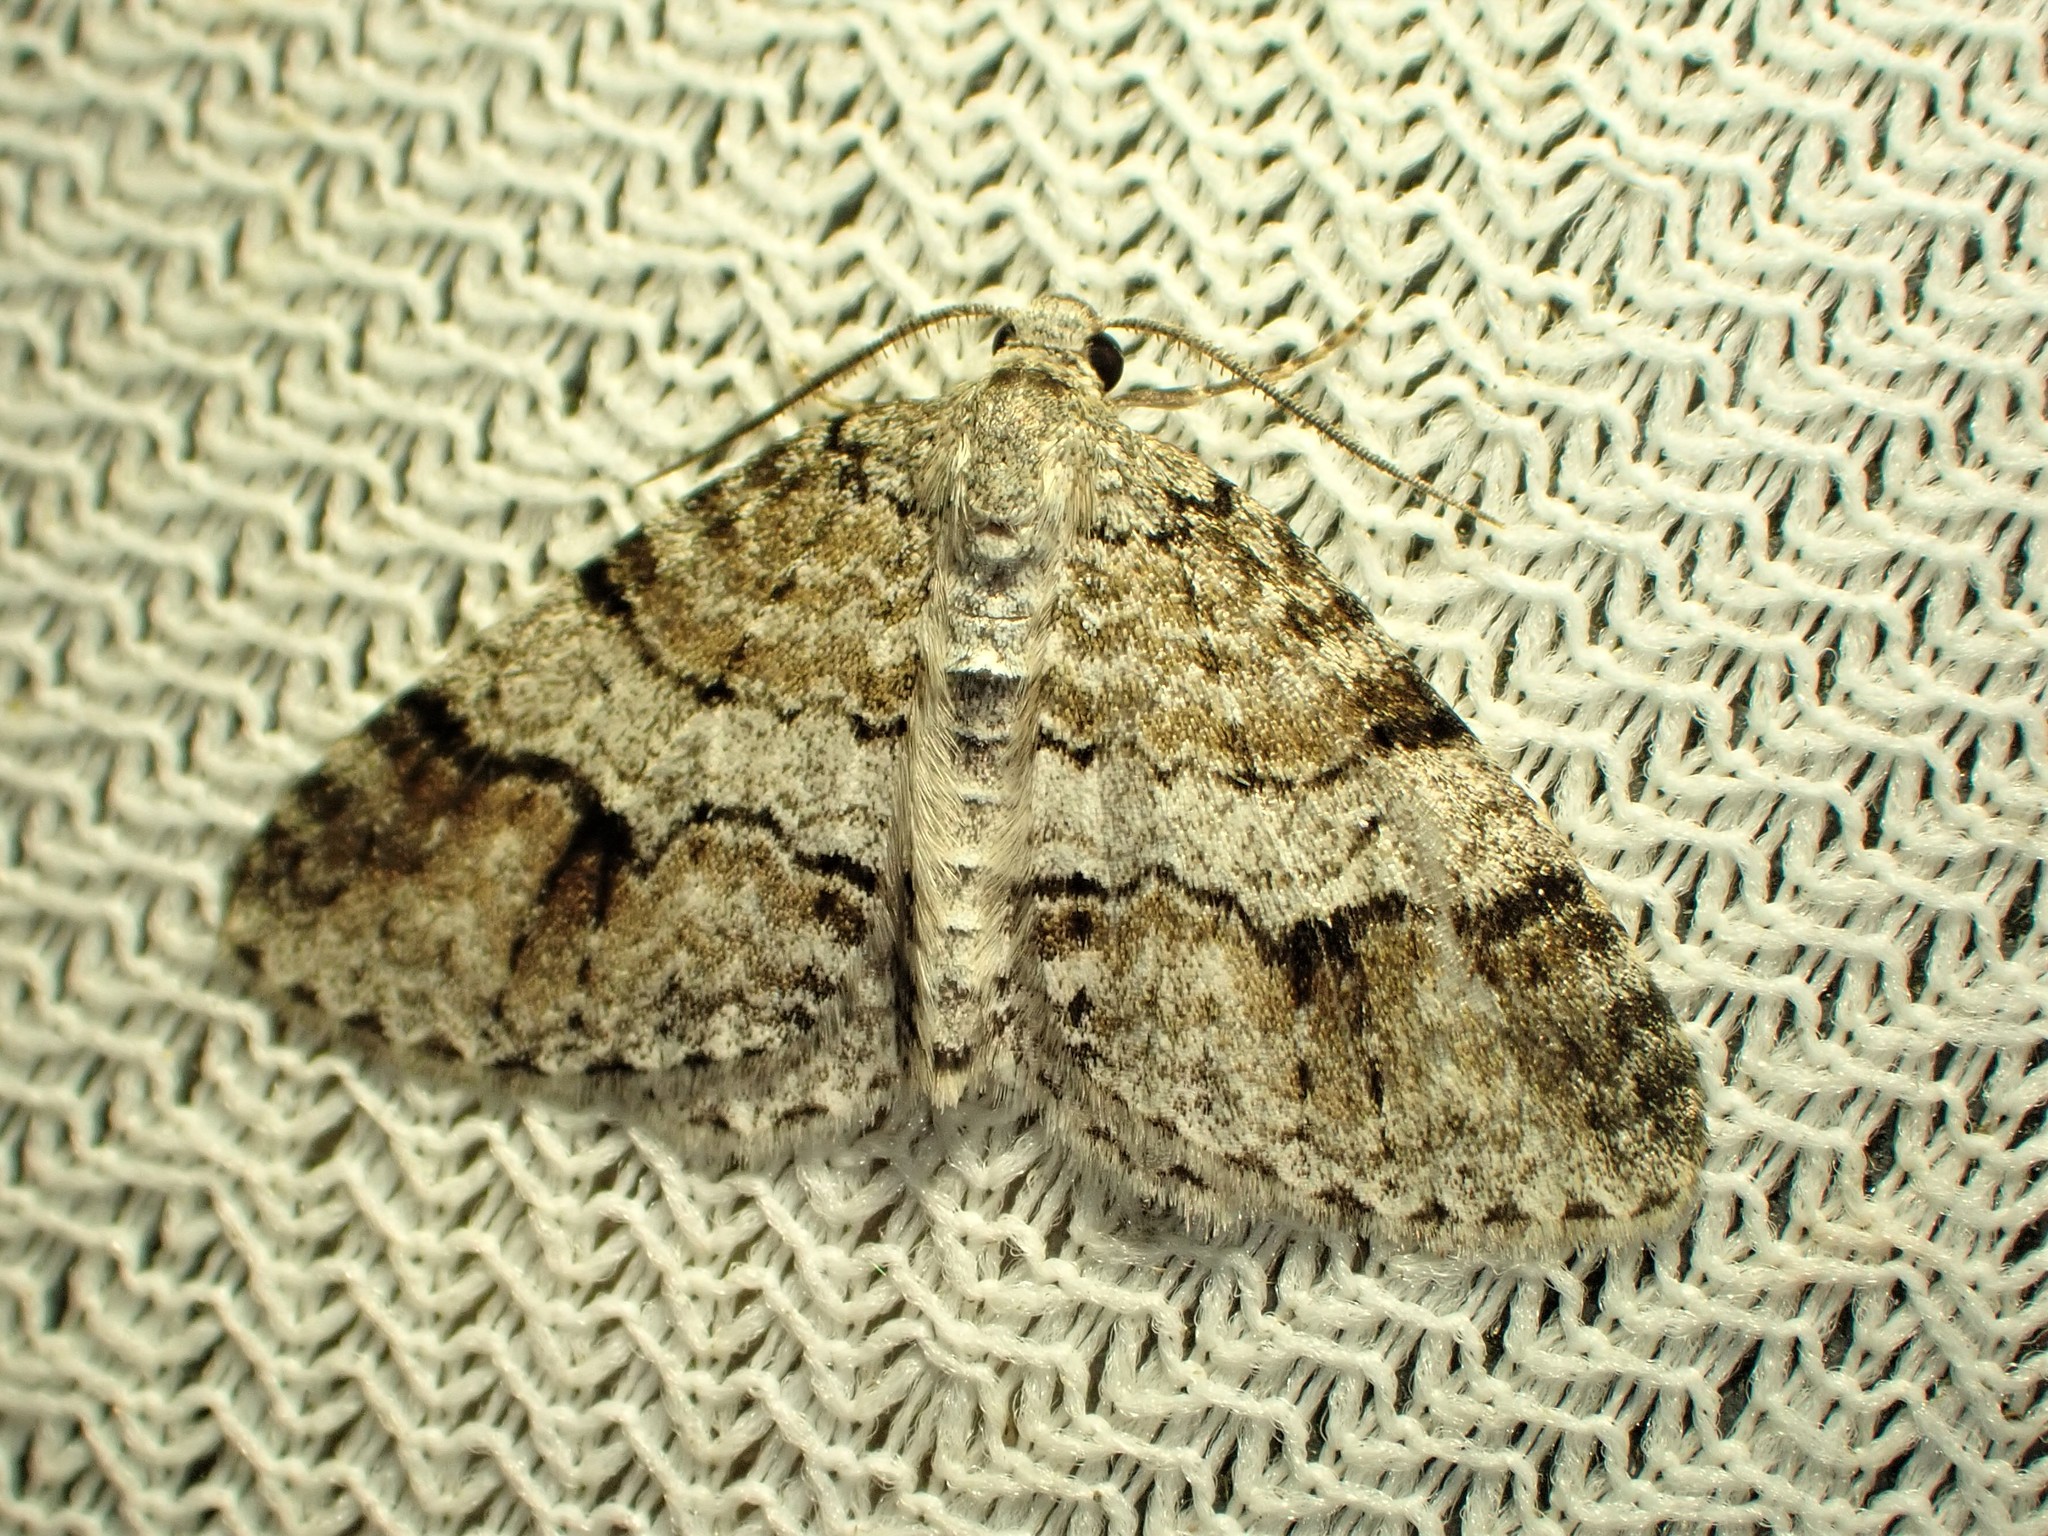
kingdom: Animalia
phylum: Arthropoda
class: Insecta
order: Lepidoptera
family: Geometridae
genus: Venusia
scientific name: Venusia cambrica
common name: Welsh wave
